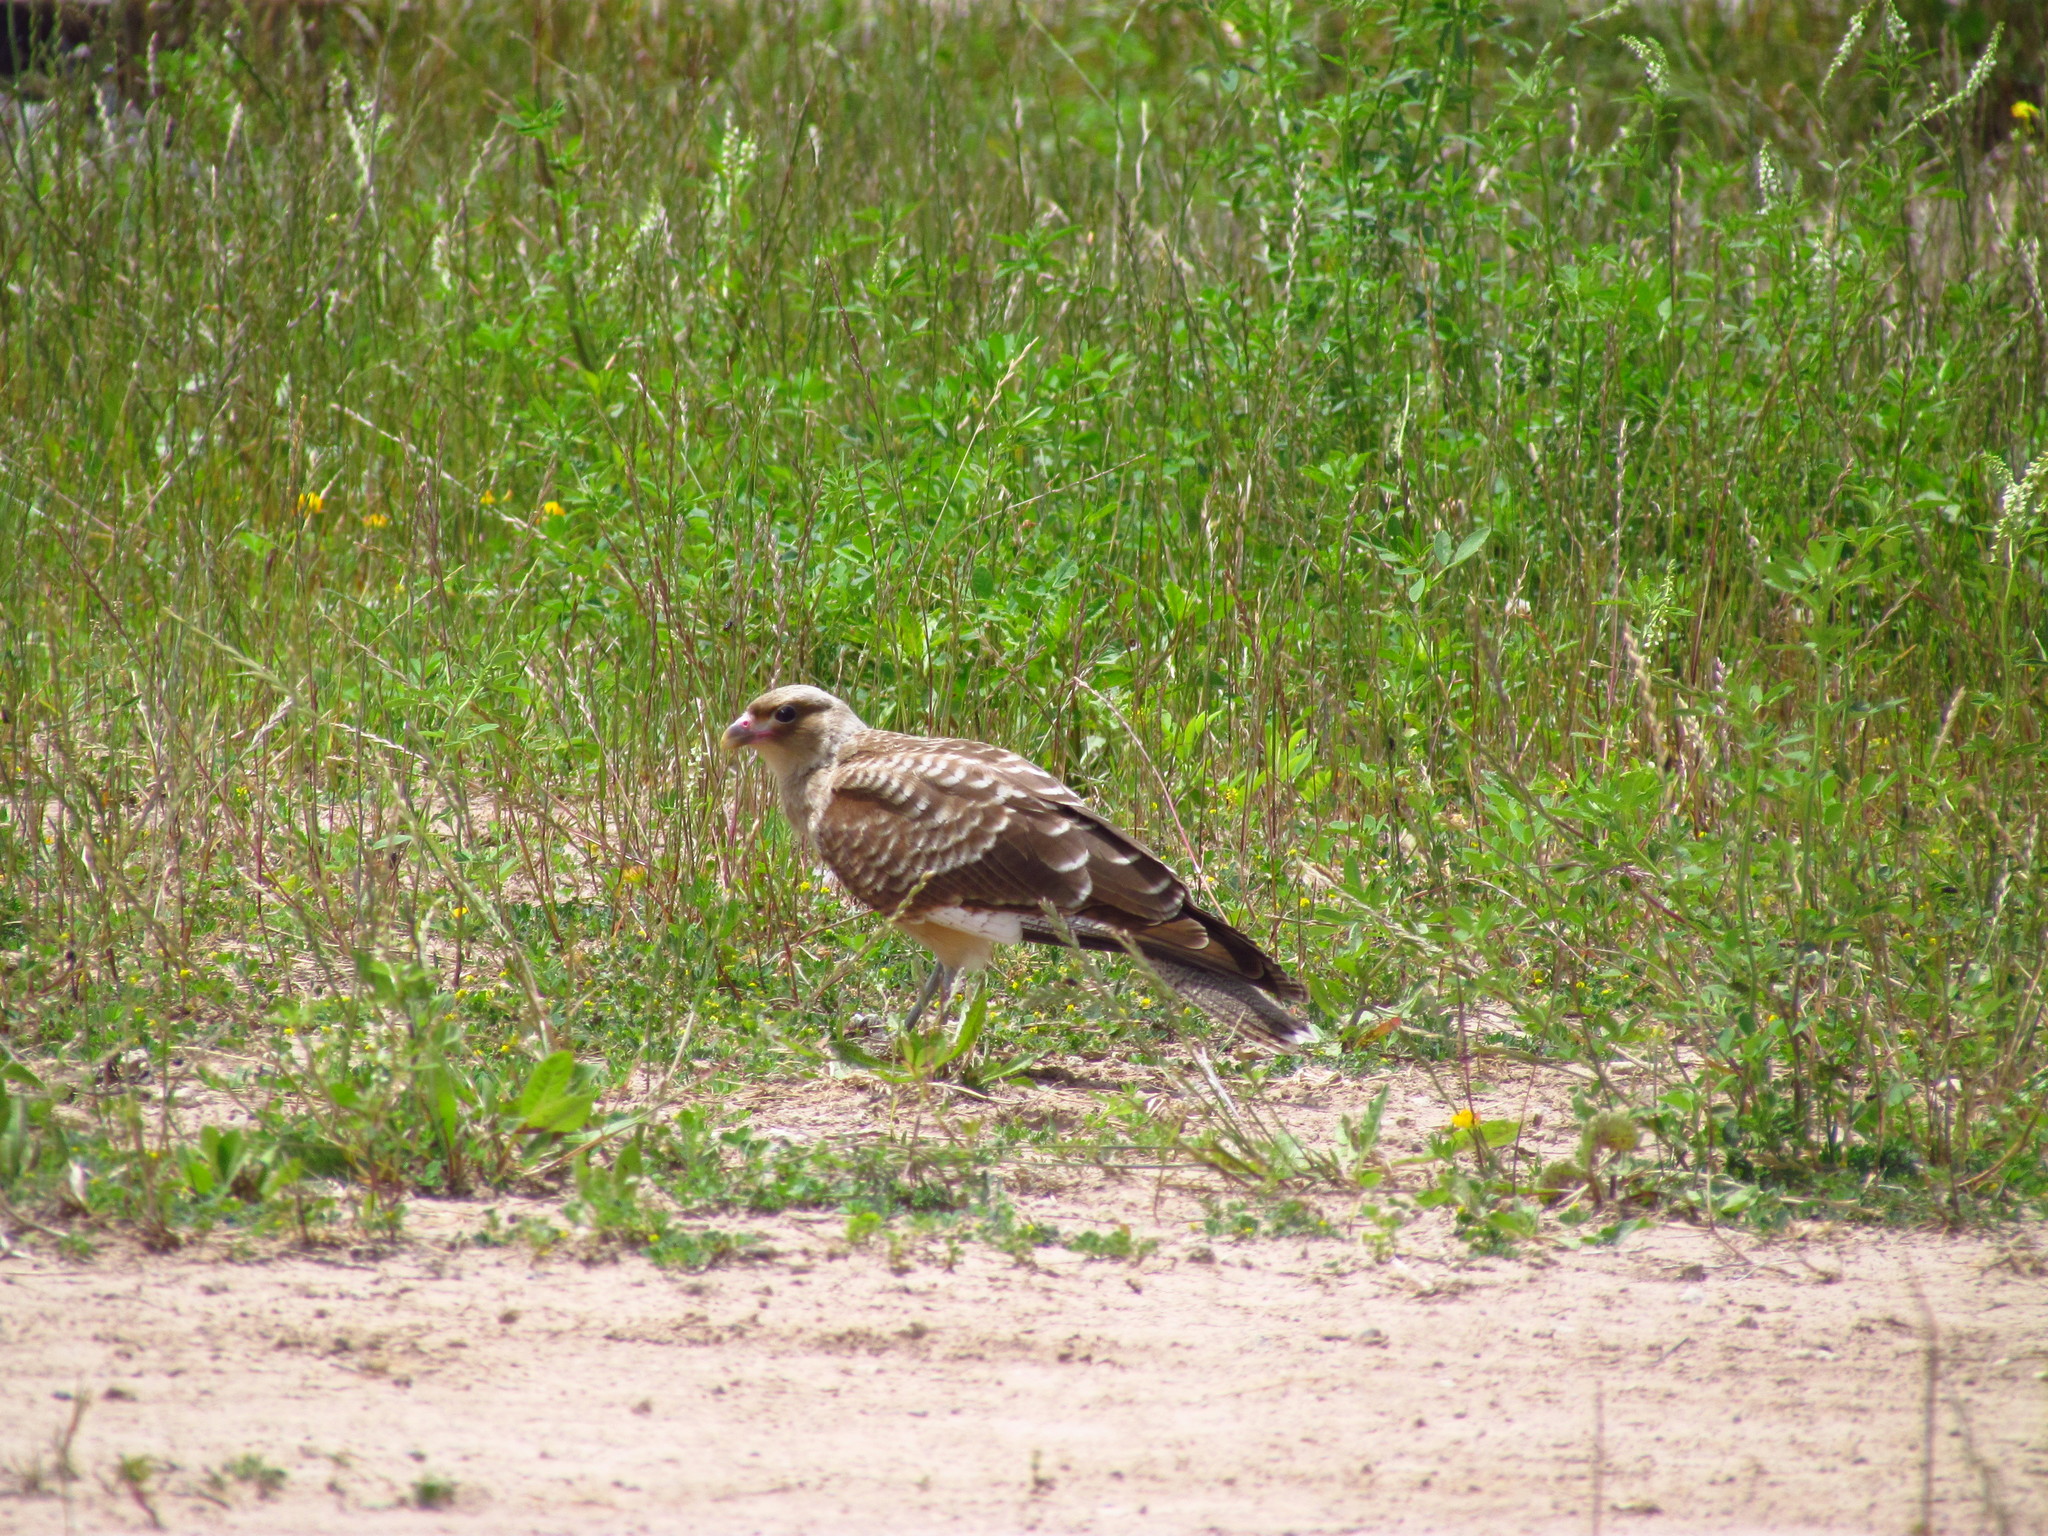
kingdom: Animalia
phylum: Chordata
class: Aves
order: Falconiformes
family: Falconidae
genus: Daptrius
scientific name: Daptrius
